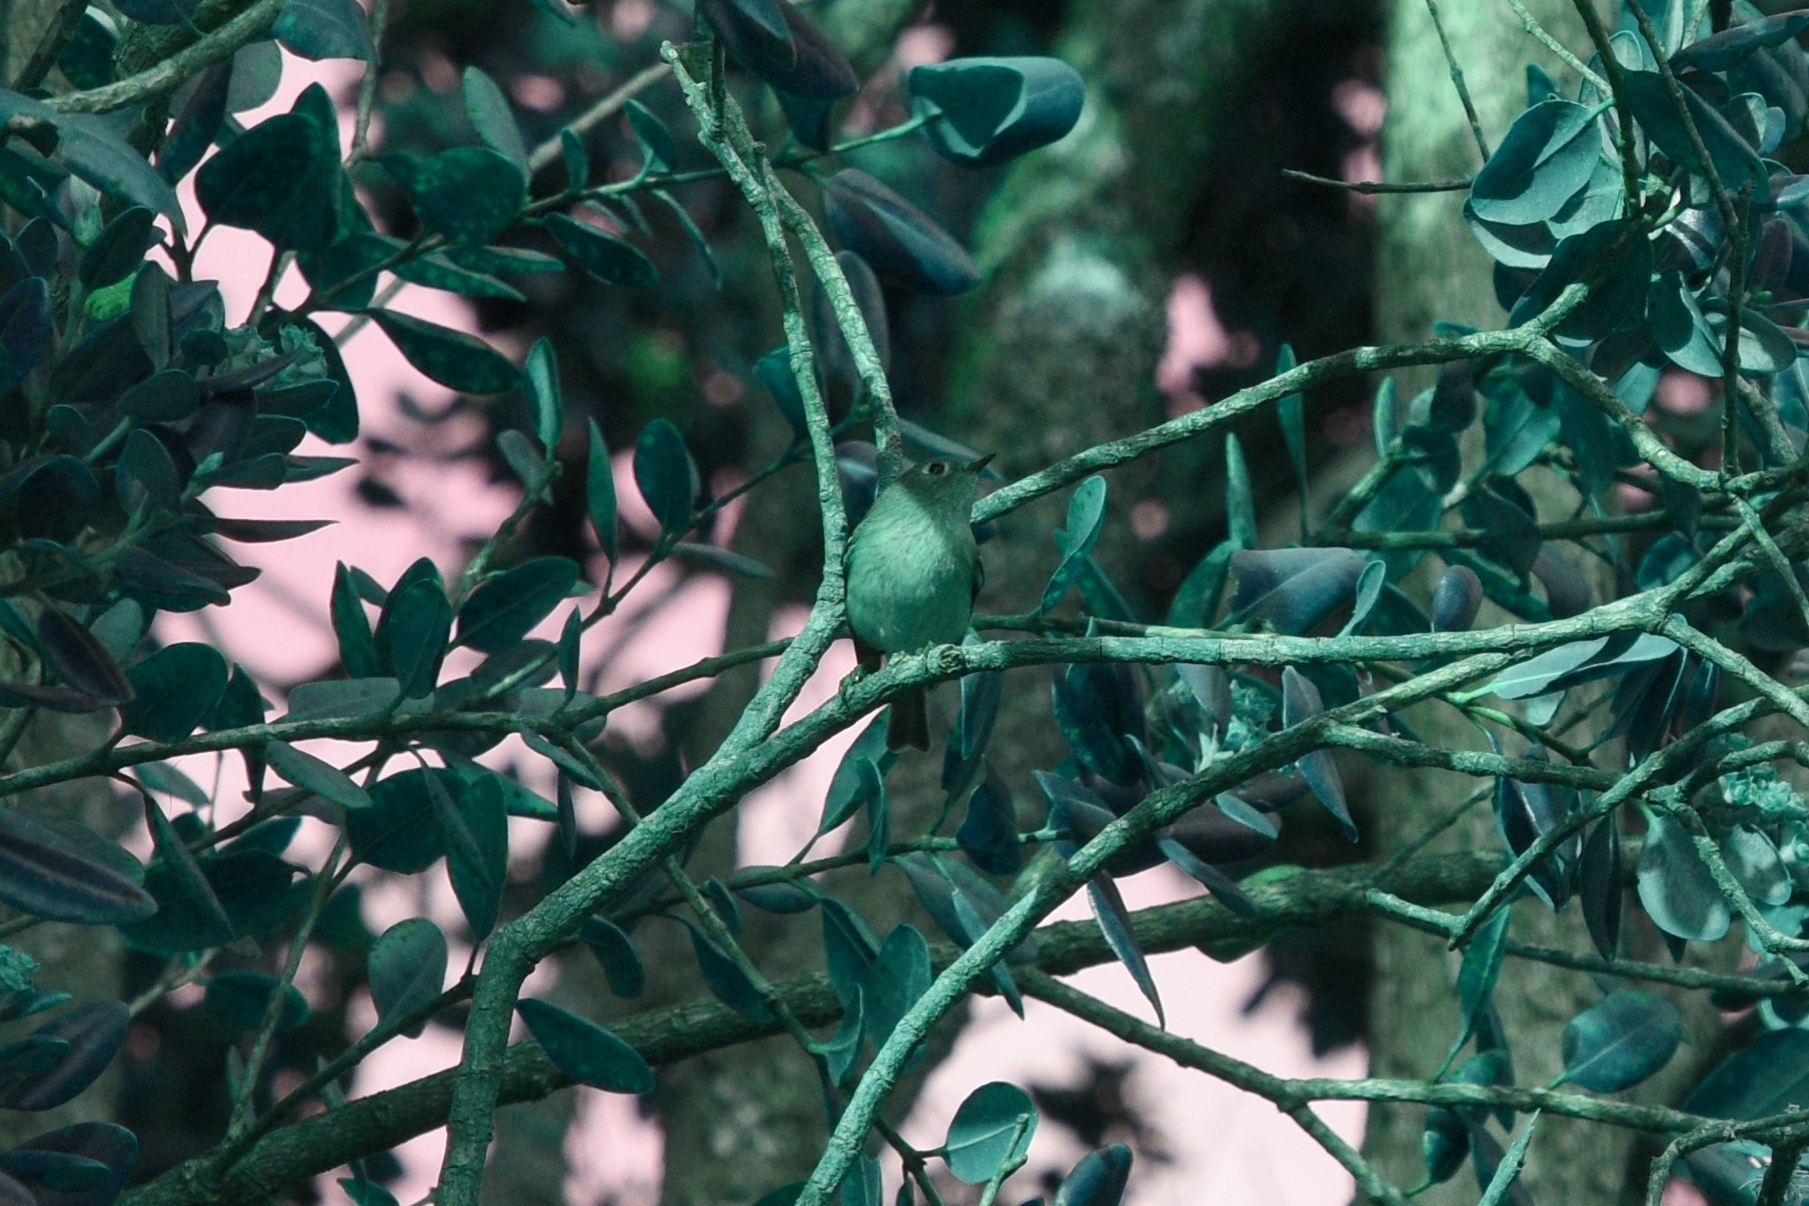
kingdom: Animalia
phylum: Chordata
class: Aves
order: Passeriformes
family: Regulidae
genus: Regulus
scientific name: Regulus calendula
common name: Ruby-crowned kinglet
